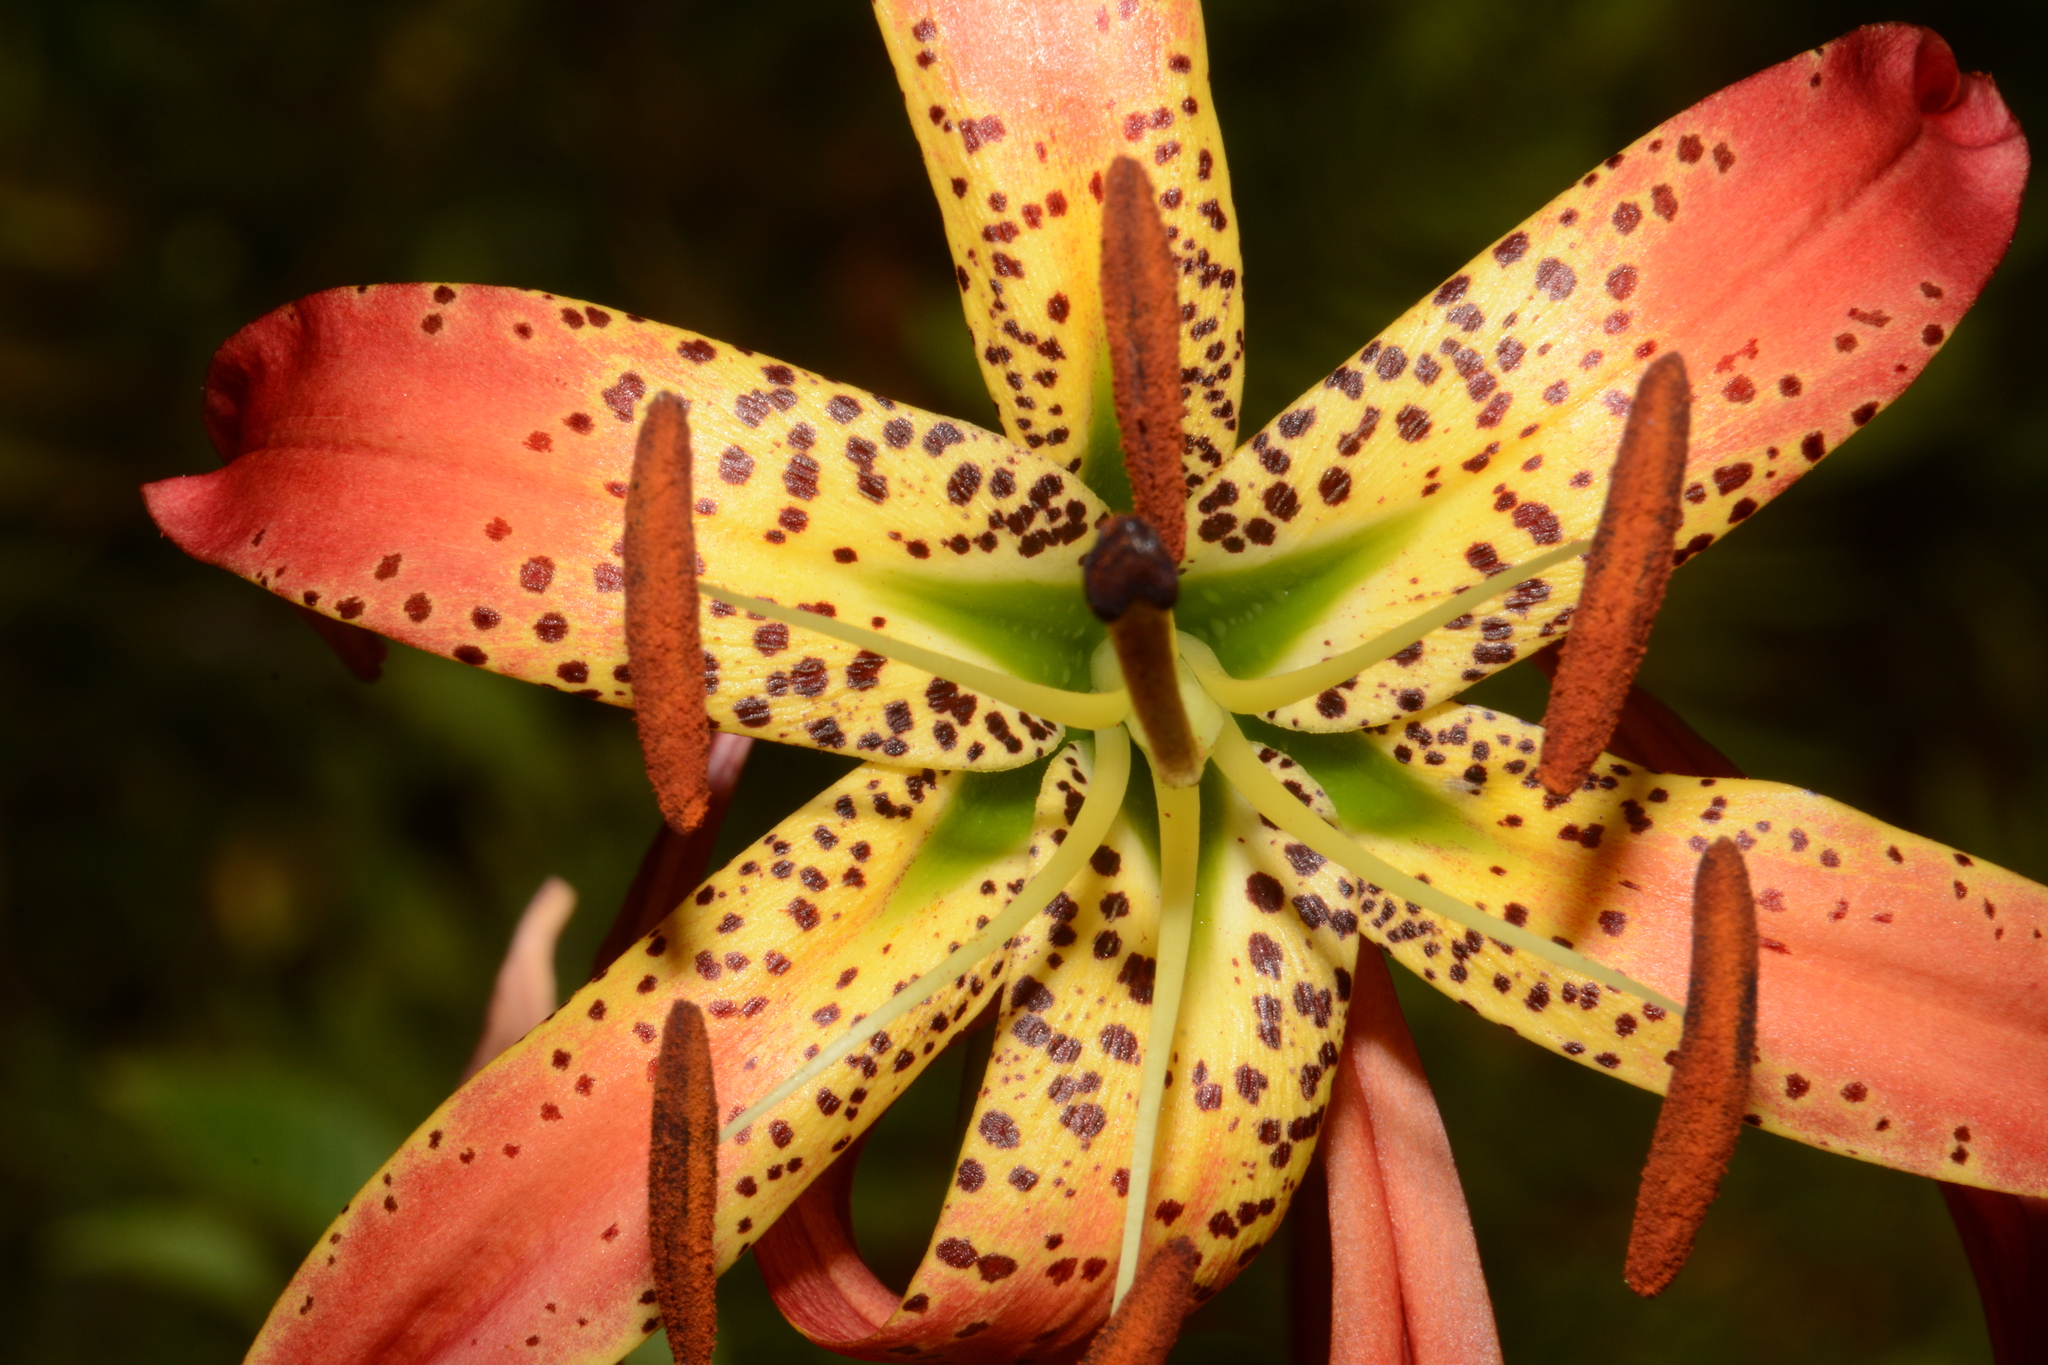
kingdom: Plantae
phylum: Tracheophyta
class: Liliopsida
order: Liliales
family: Liliaceae
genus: Lilium
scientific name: Lilium superbum
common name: American turk's-cap lily
